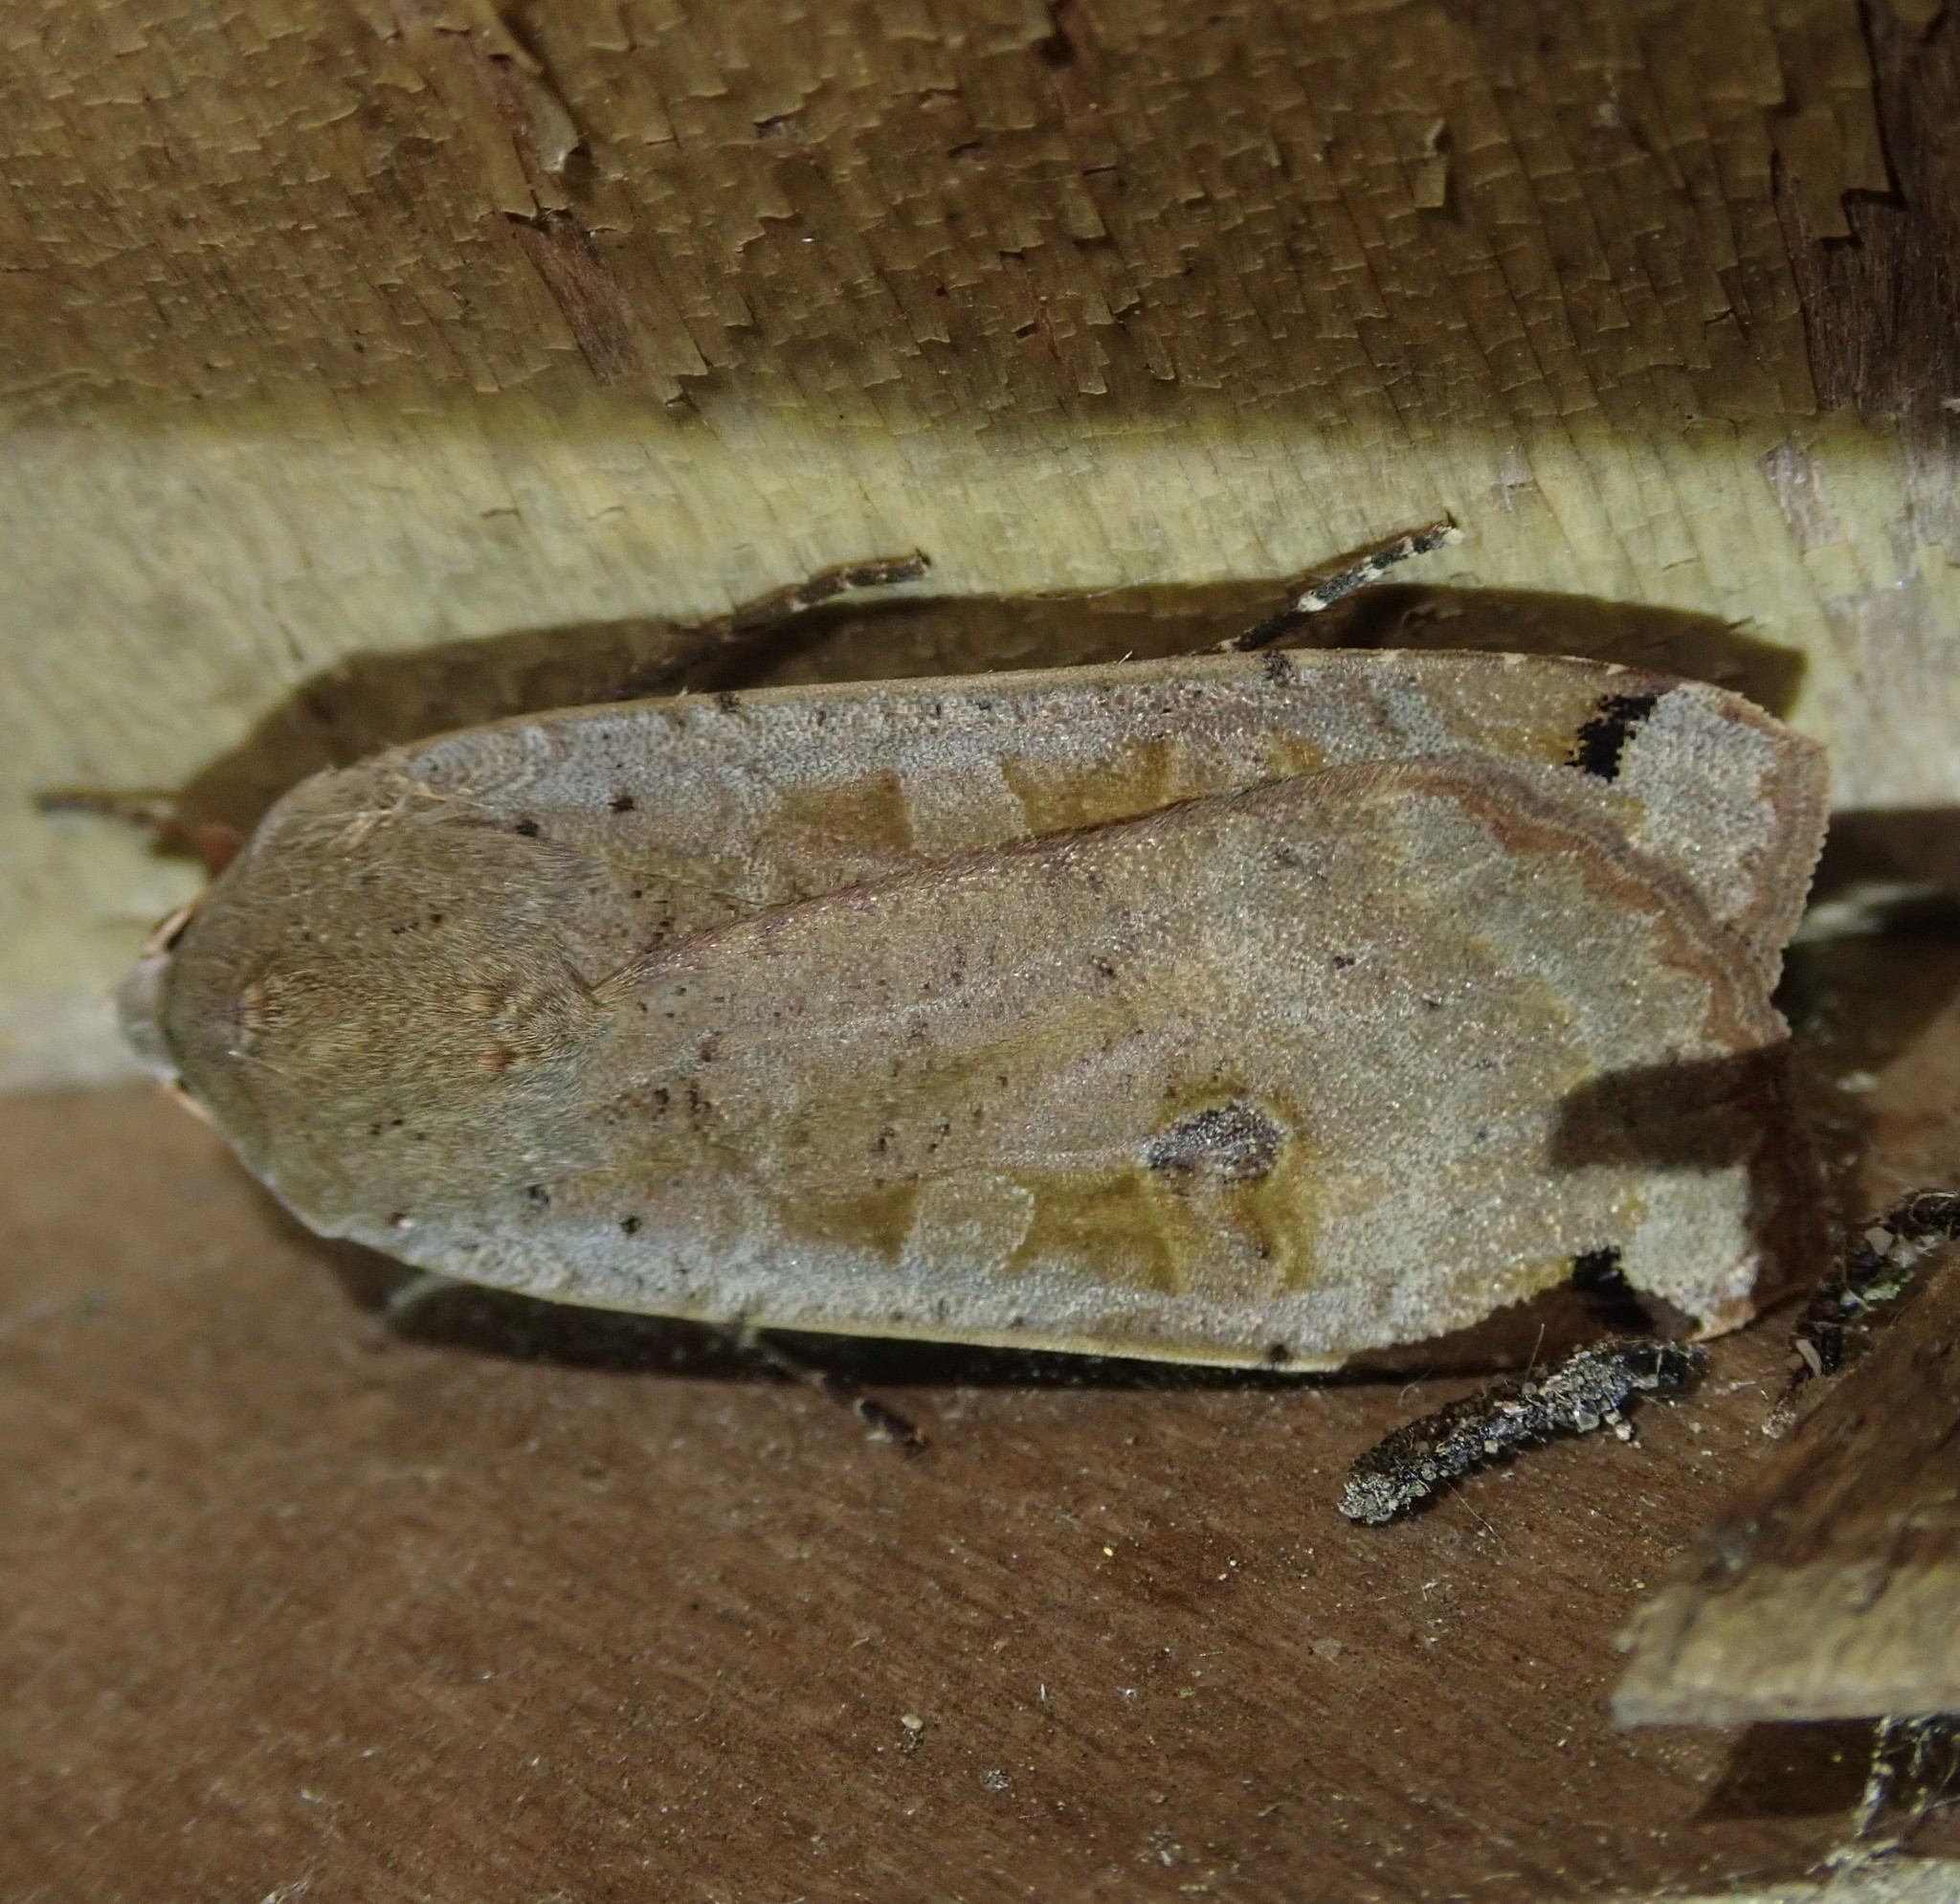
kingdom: Animalia
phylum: Arthropoda
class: Insecta
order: Lepidoptera
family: Noctuidae
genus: Noctua
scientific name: Noctua pronuba
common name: Large yellow underwing
